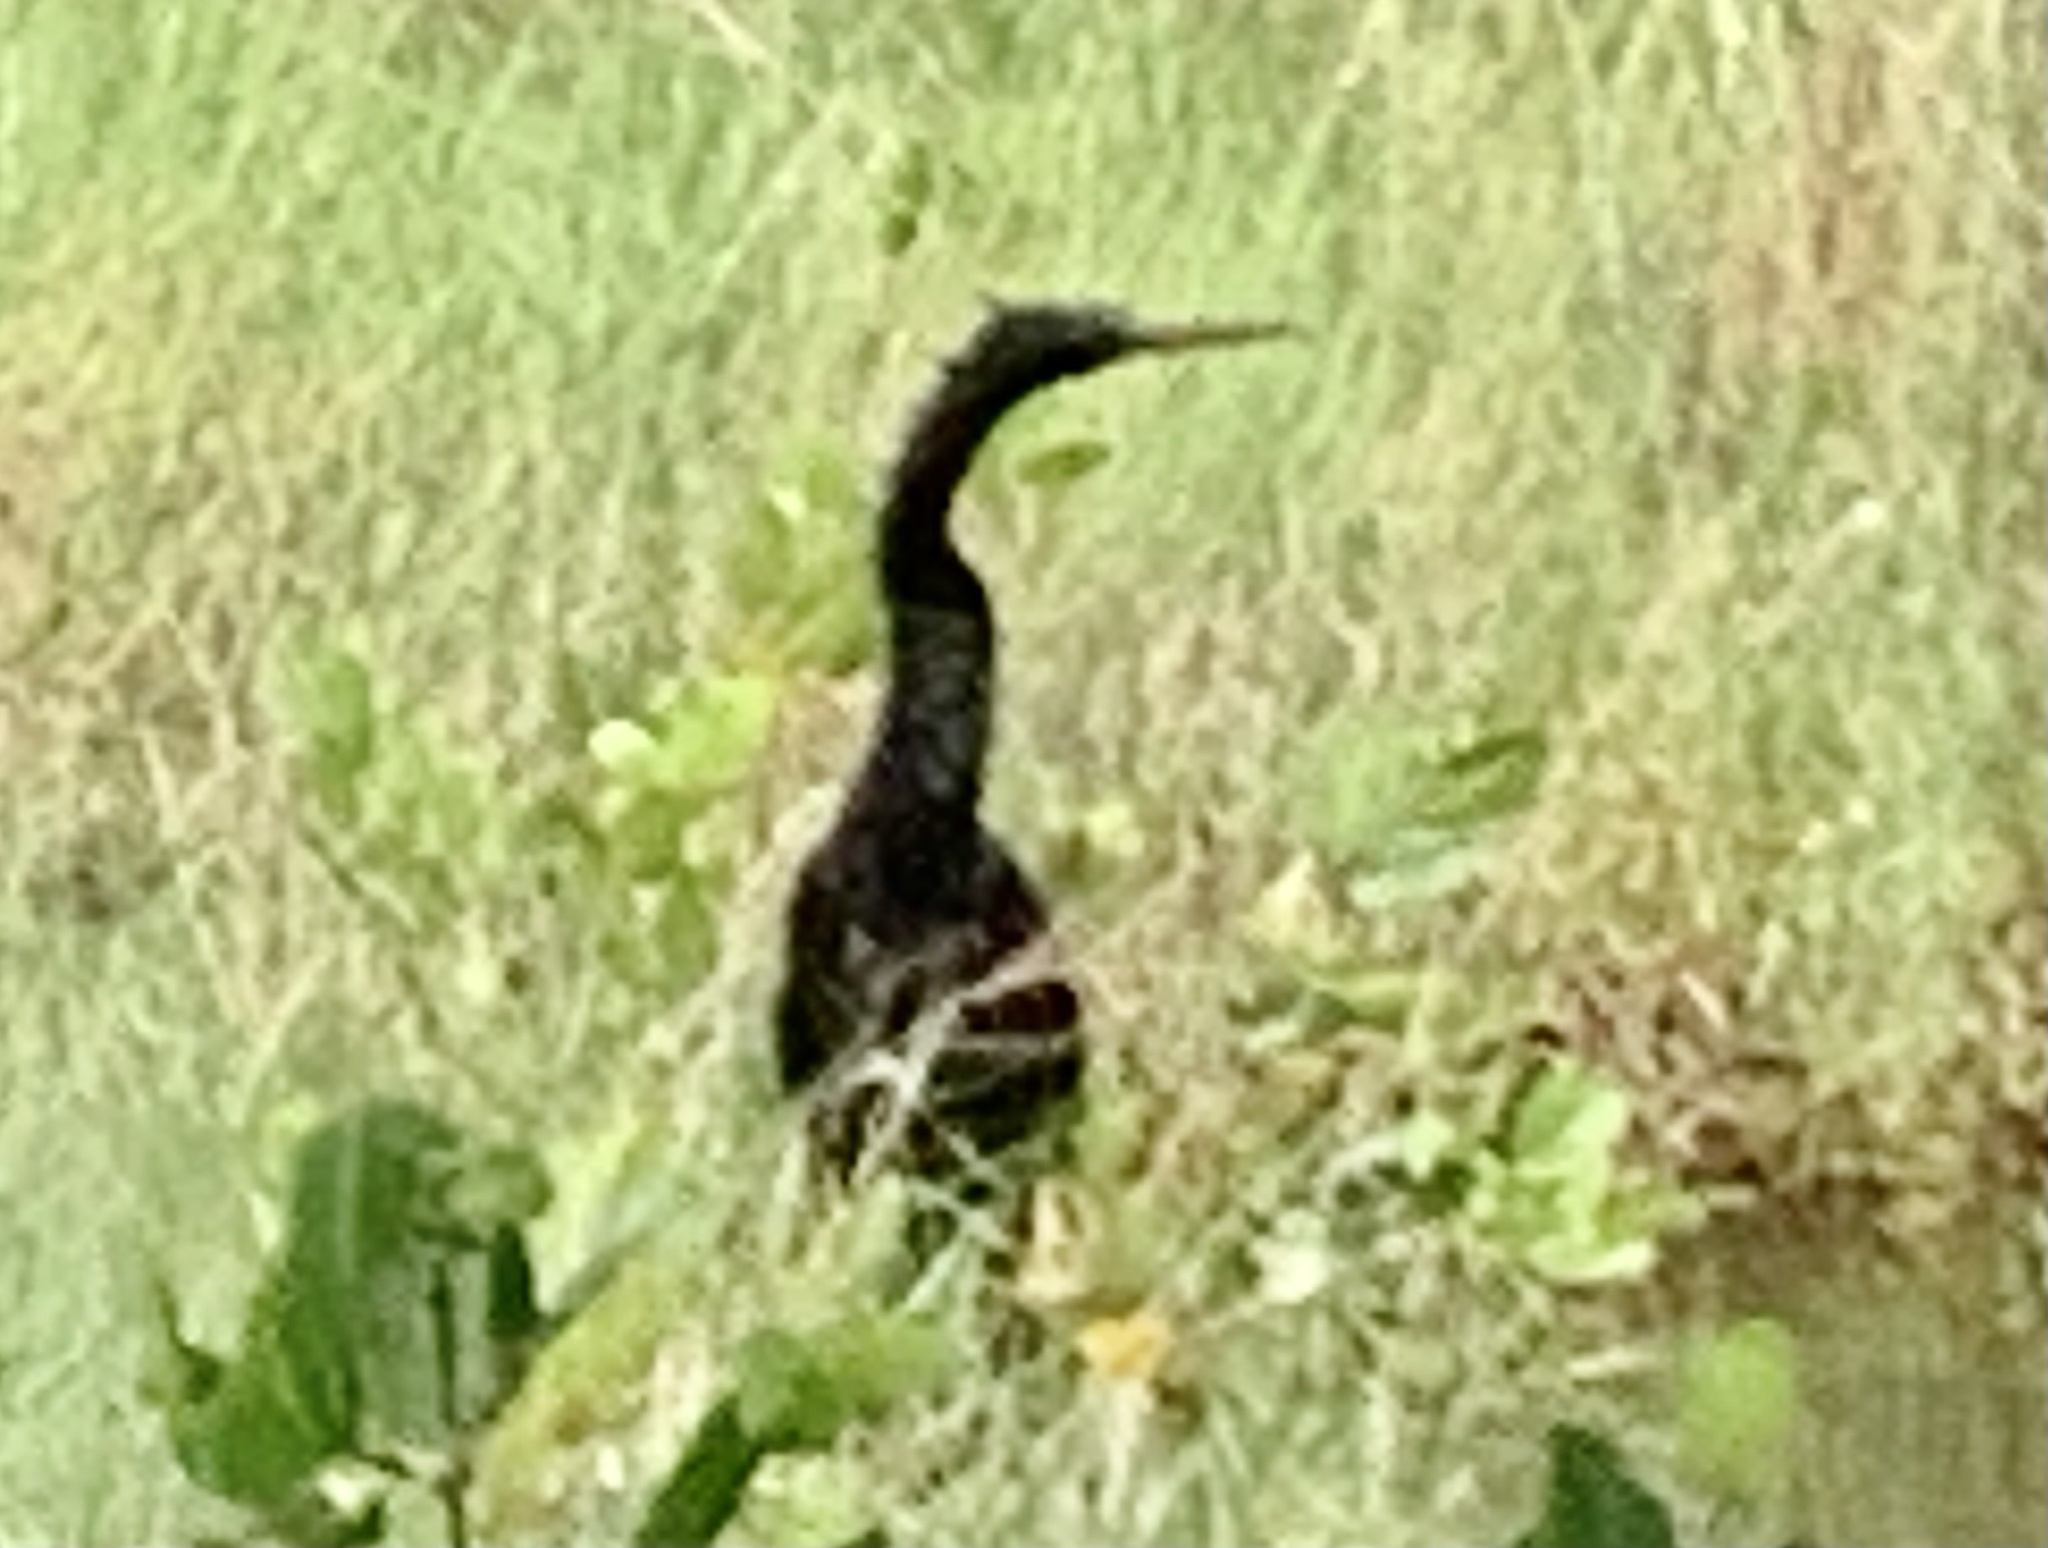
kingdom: Animalia
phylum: Chordata
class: Aves
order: Suliformes
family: Anhingidae
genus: Anhinga
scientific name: Anhinga anhinga
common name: Anhinga
